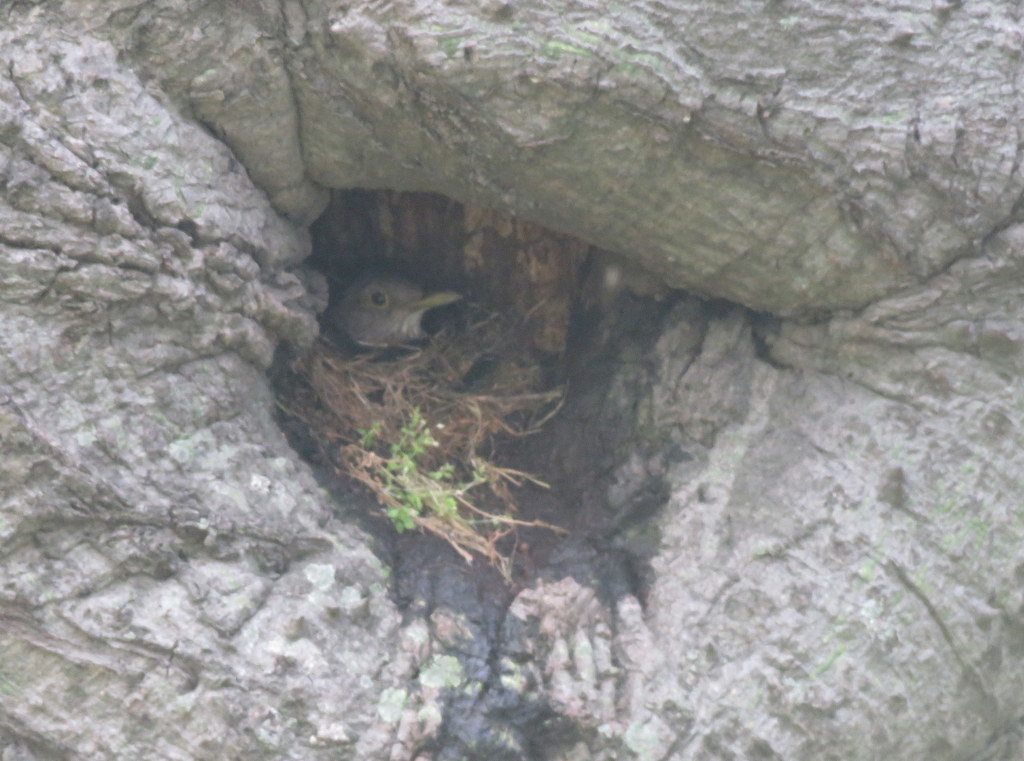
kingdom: Animalia
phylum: Chordata
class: Aves
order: Passeriformes
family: Turdidae
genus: Turdus
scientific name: Turdus rufiventris
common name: Rufous-bellied thrush
